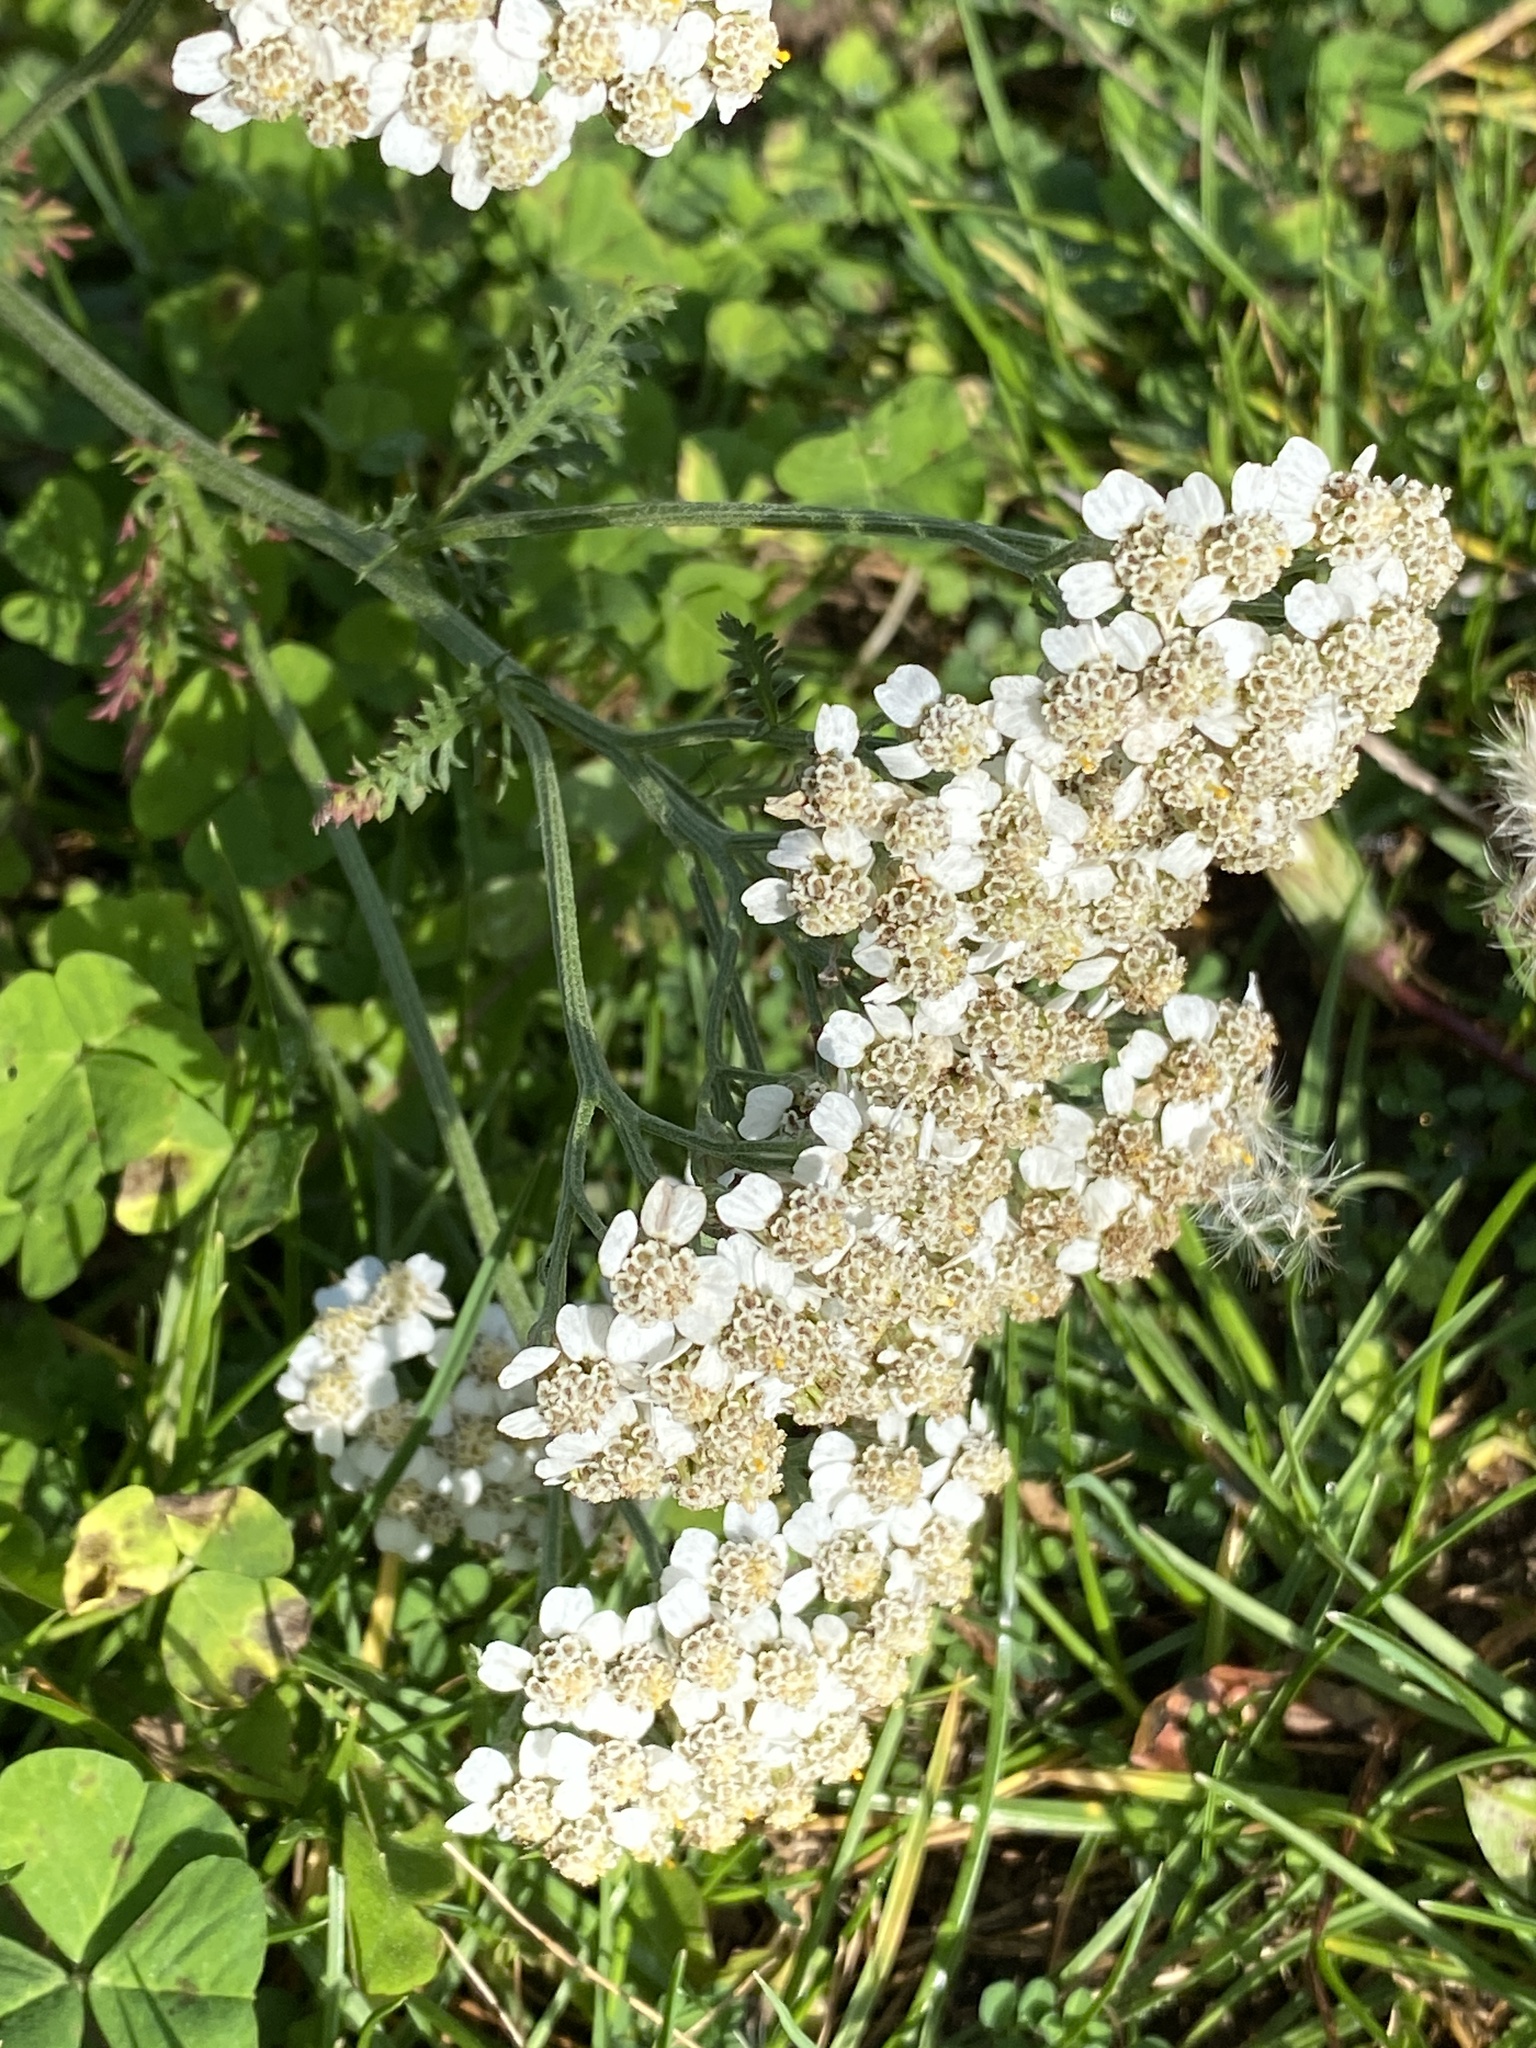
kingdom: Plantae
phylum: Tracheophyta
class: Magnoliopsida
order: Asterales
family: Asteraceae
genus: Achillea
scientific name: Achillea millefolium
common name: Yarrow
